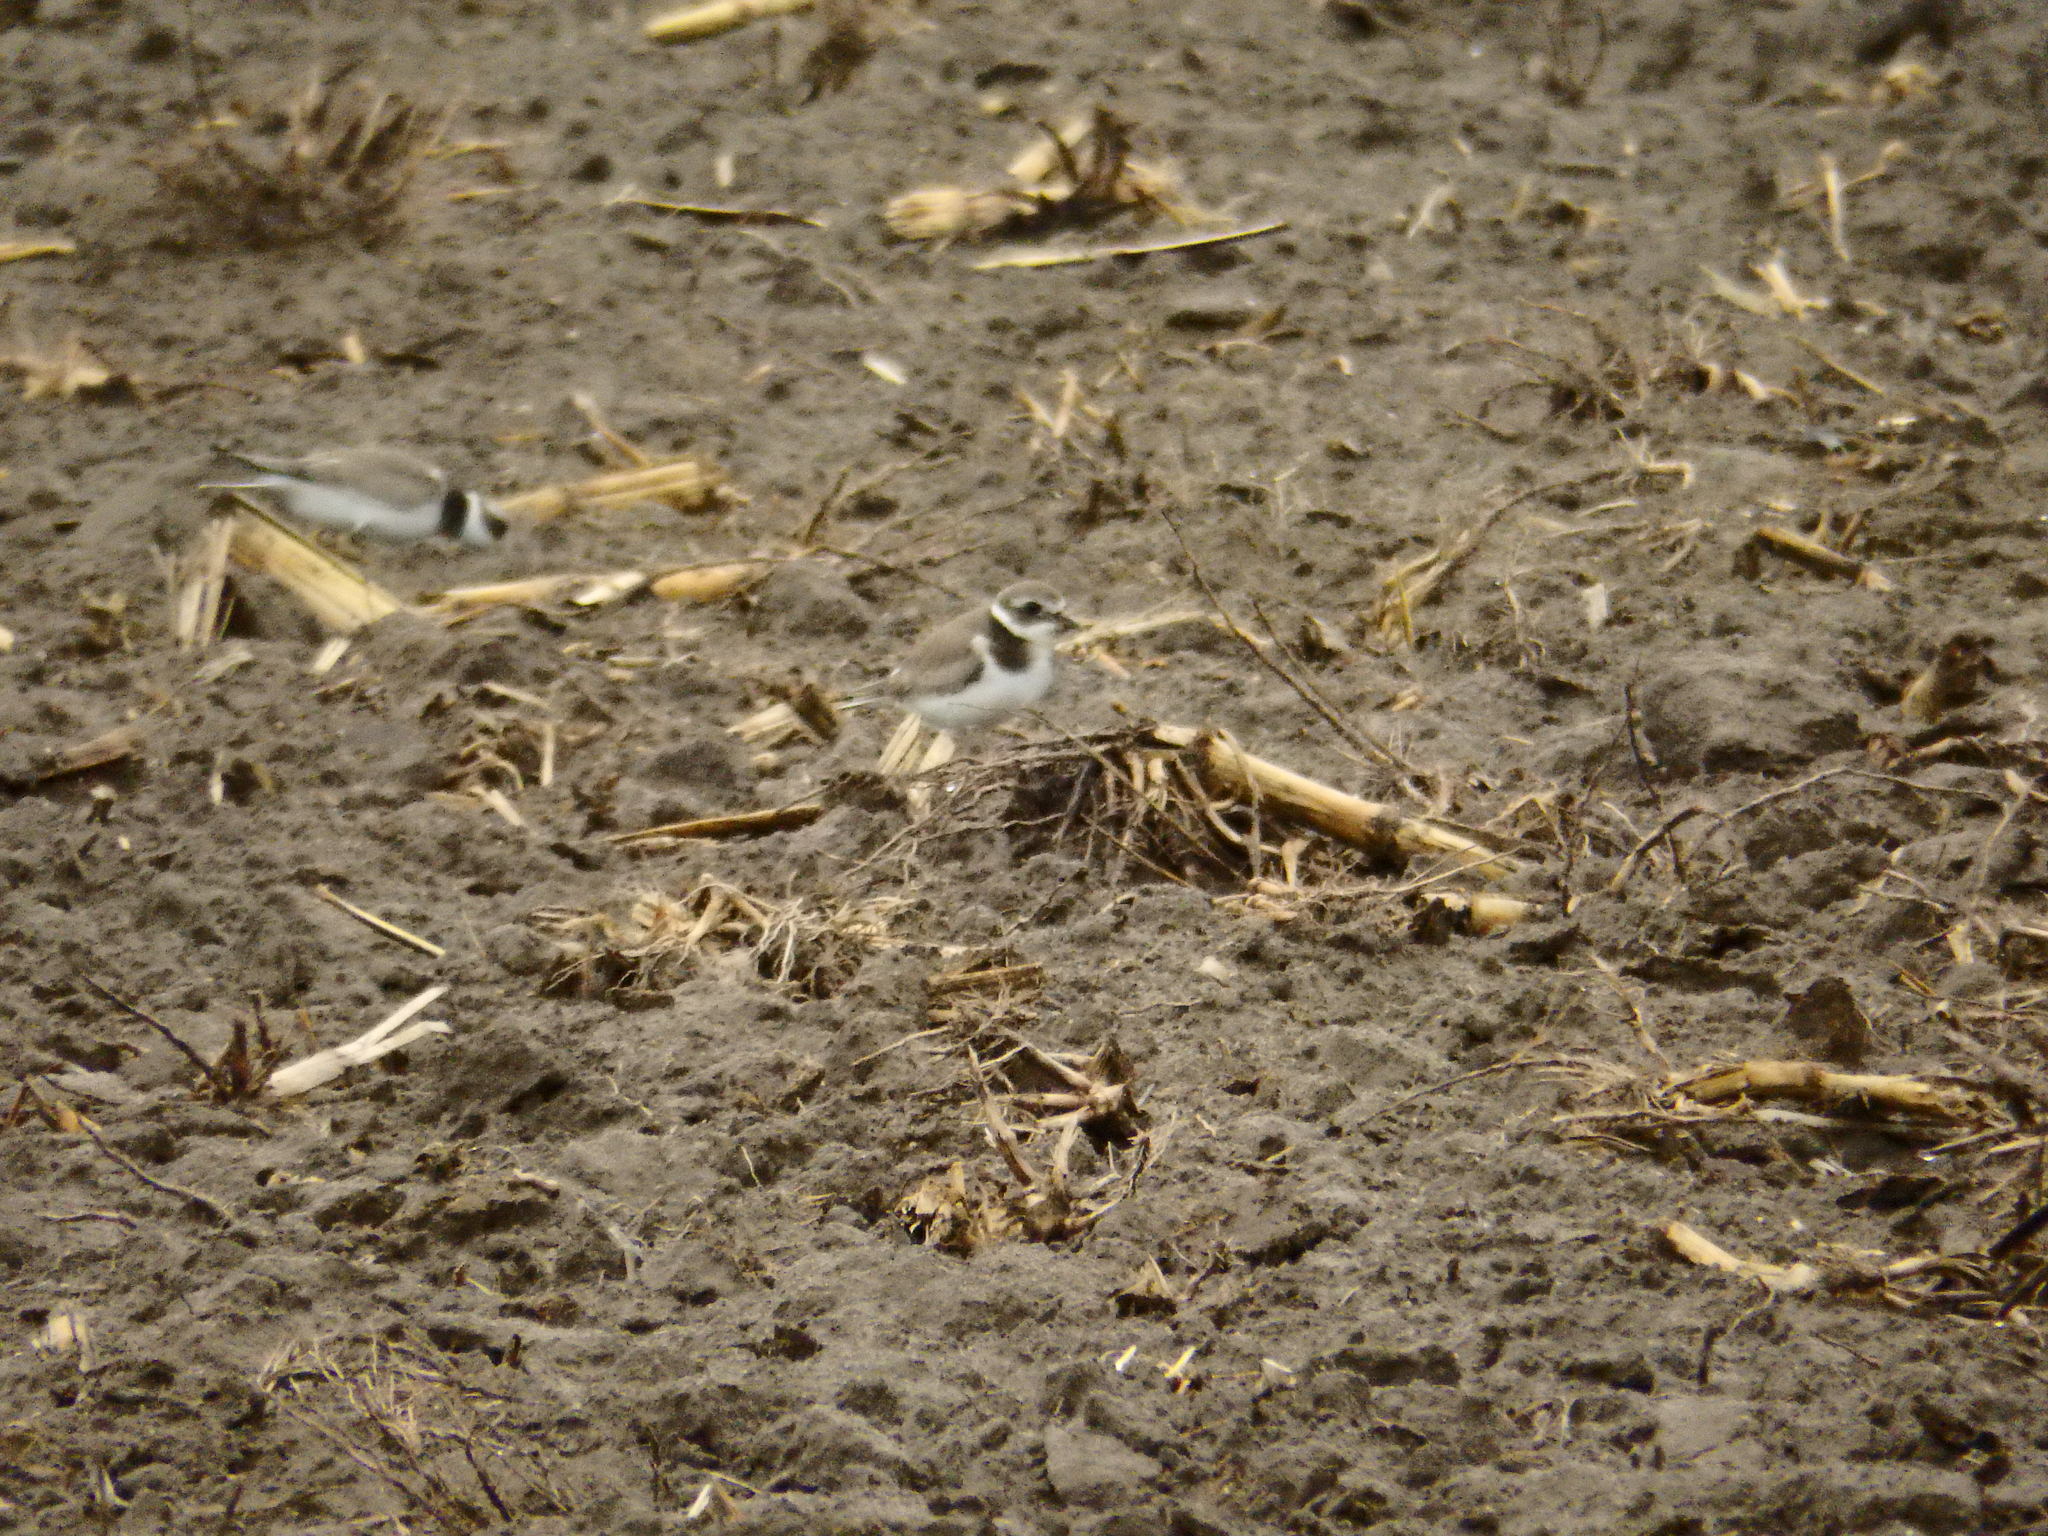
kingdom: Animalia
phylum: Chordata
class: Aves
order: Charadriiformes
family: Charadriidae
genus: Charadrius
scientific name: Charadrius alexandrinus
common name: Kentish plover
